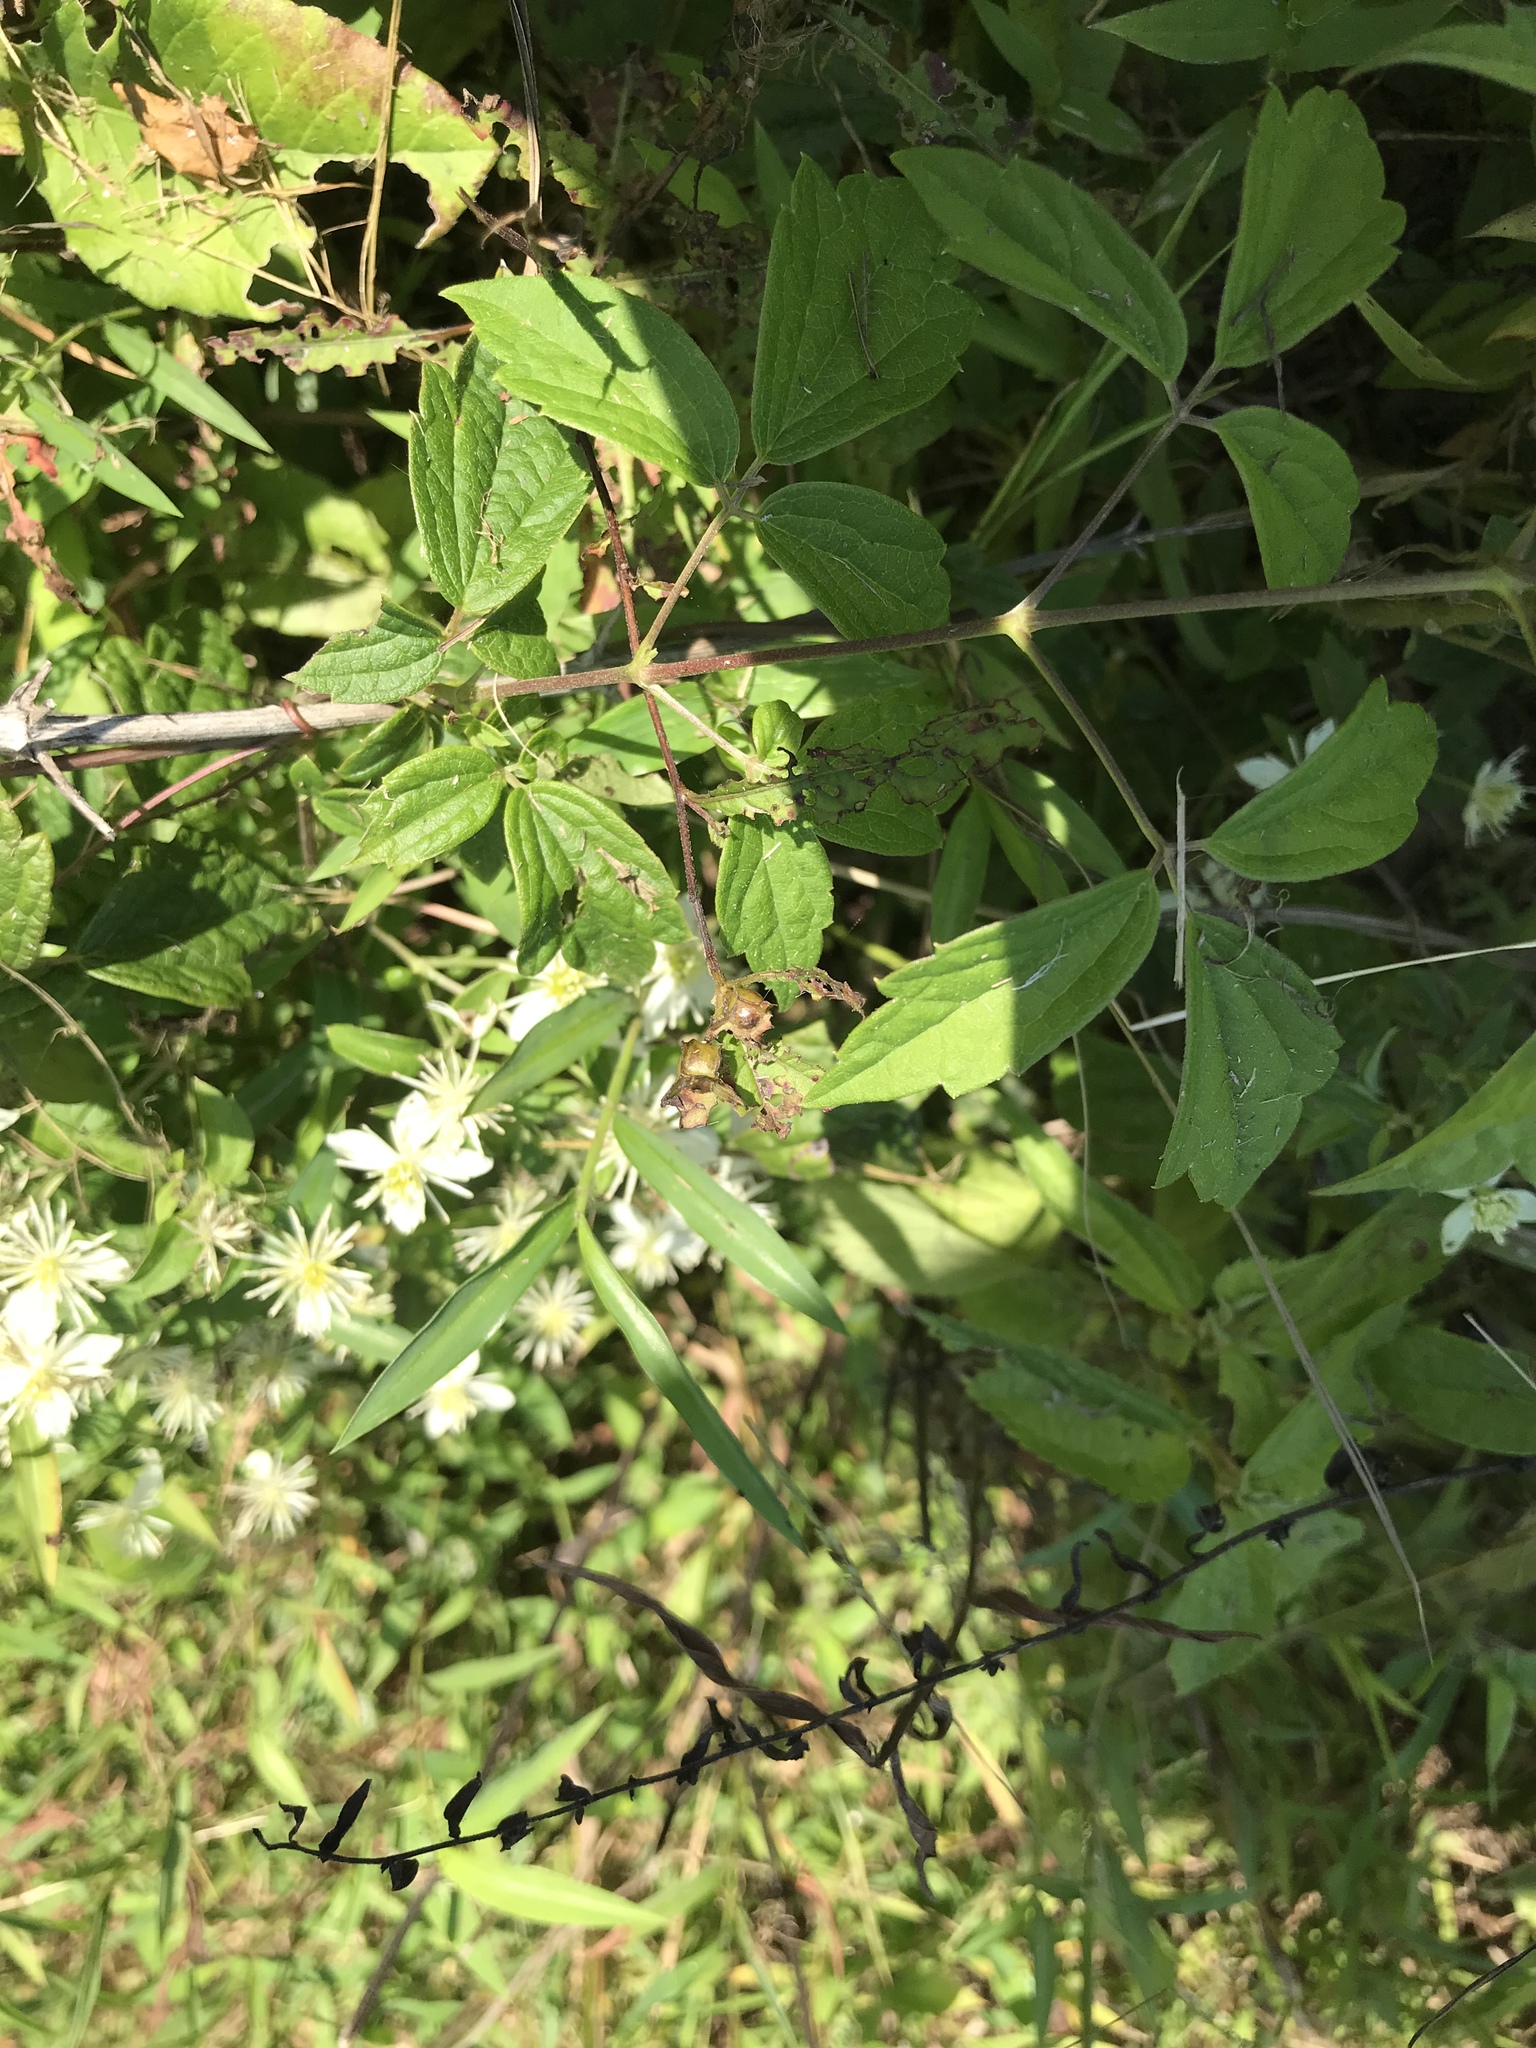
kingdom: Plantae
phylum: Tracheophyta
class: Magnoliopsida
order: Ranunculales
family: Ranunculaceae
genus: Clematis
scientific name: Clematis virginiana
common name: Virgin's-bower
